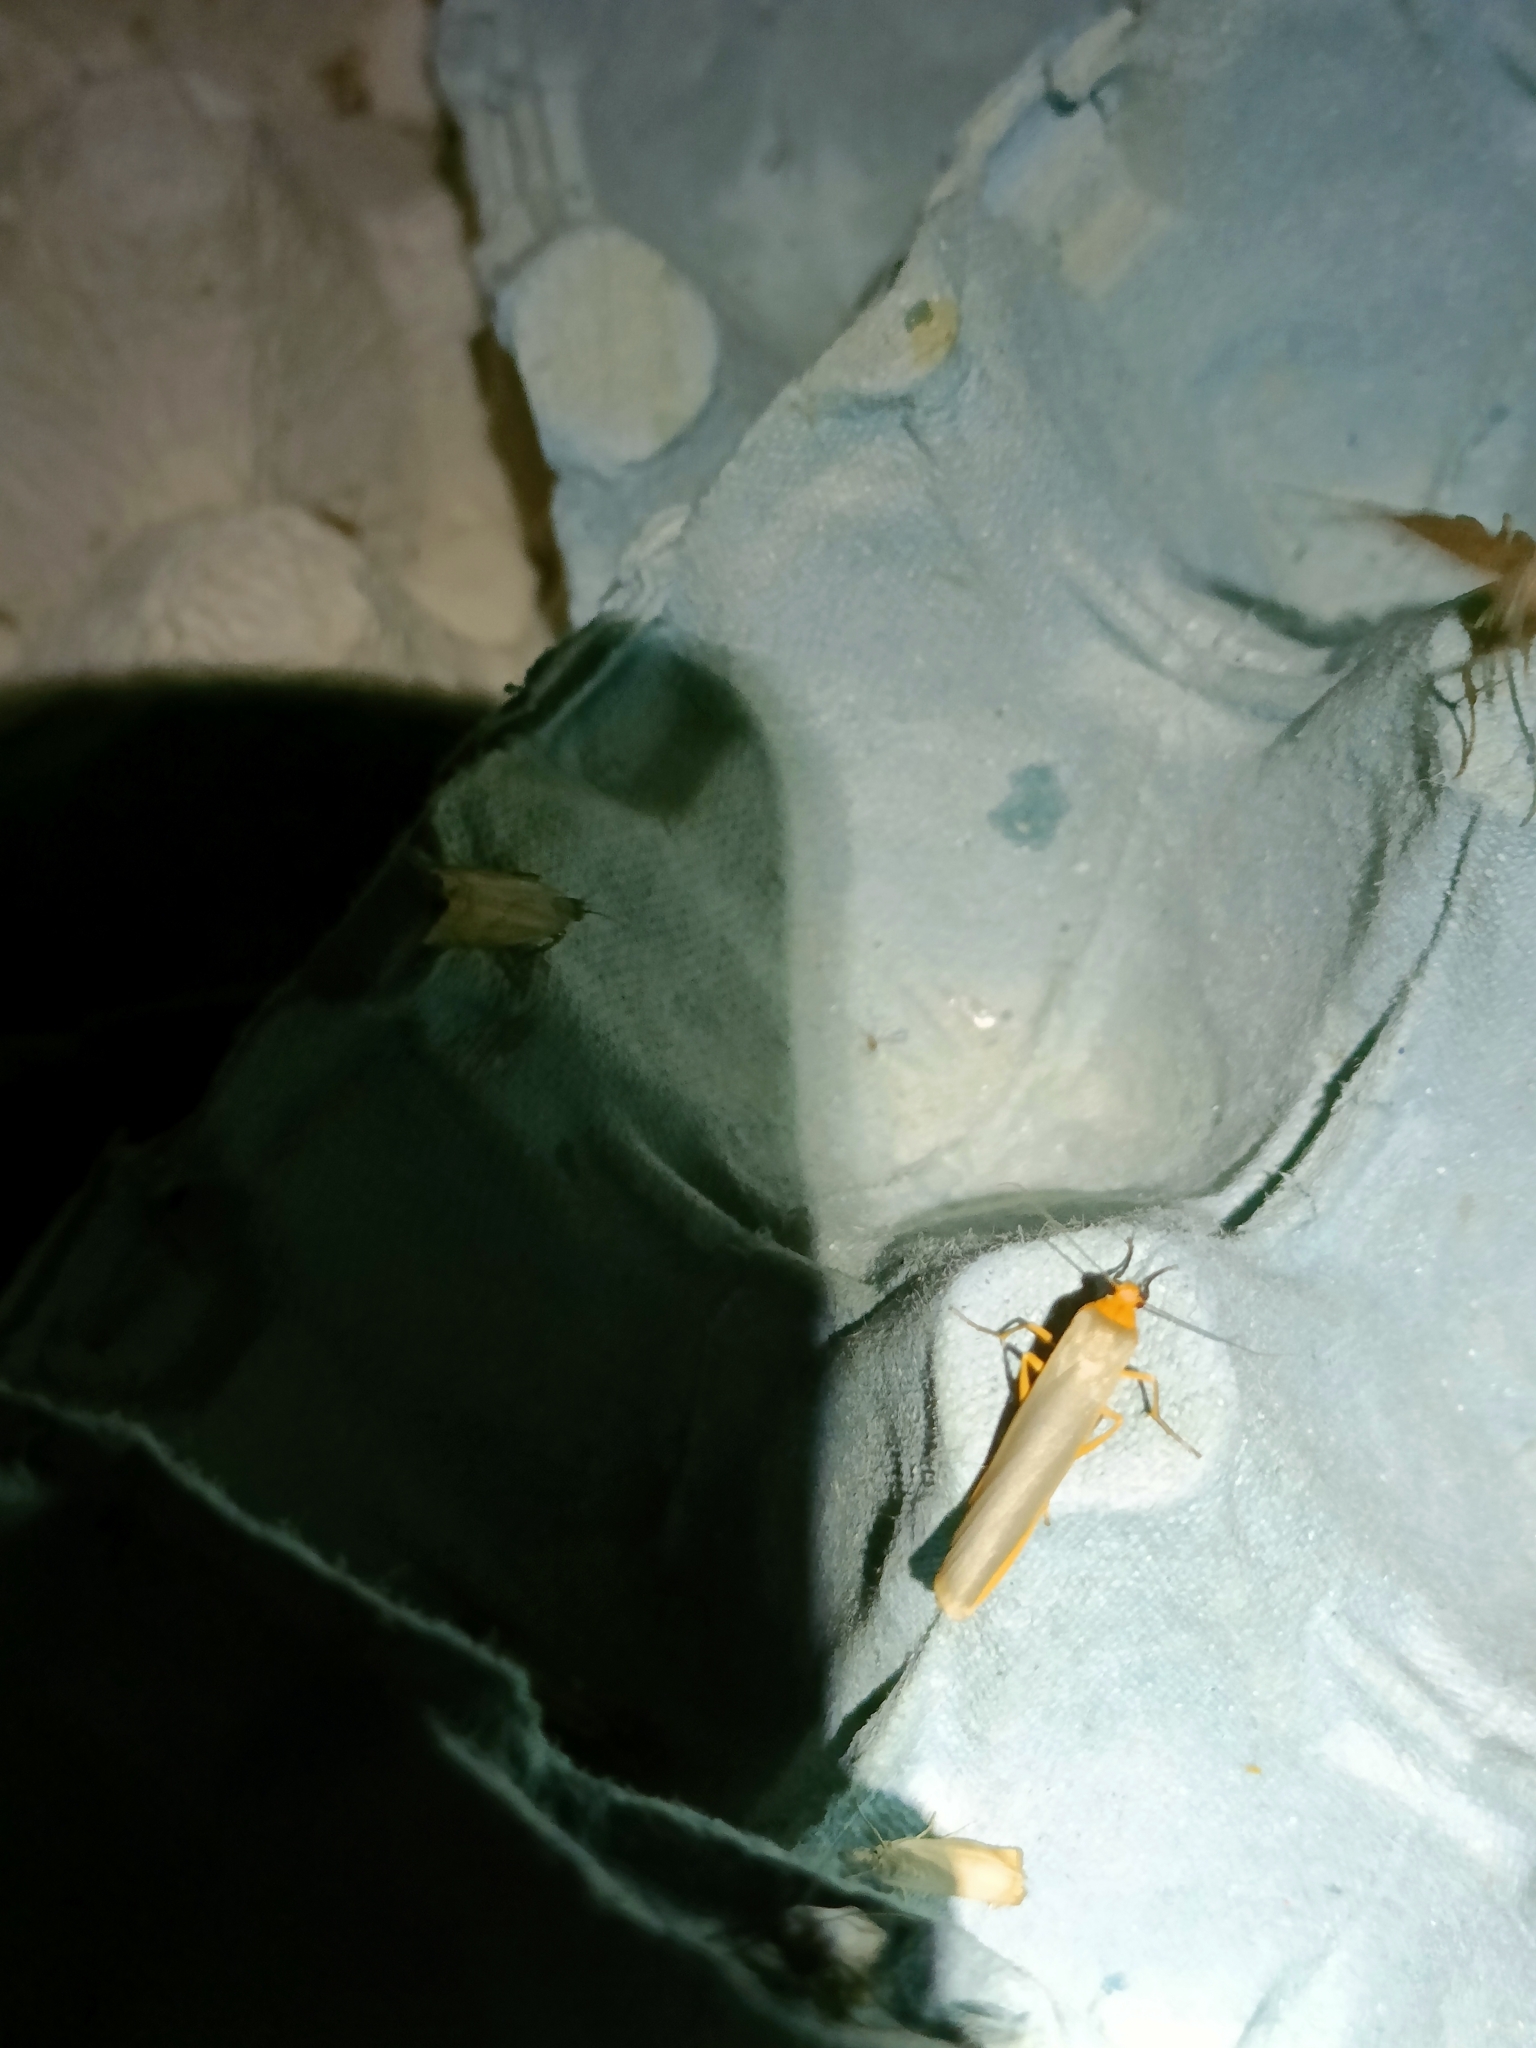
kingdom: Animalia
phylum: Arthropoda
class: Insecta
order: Lepidoptera
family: Erebidae
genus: Manulea
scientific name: Manulea complana
